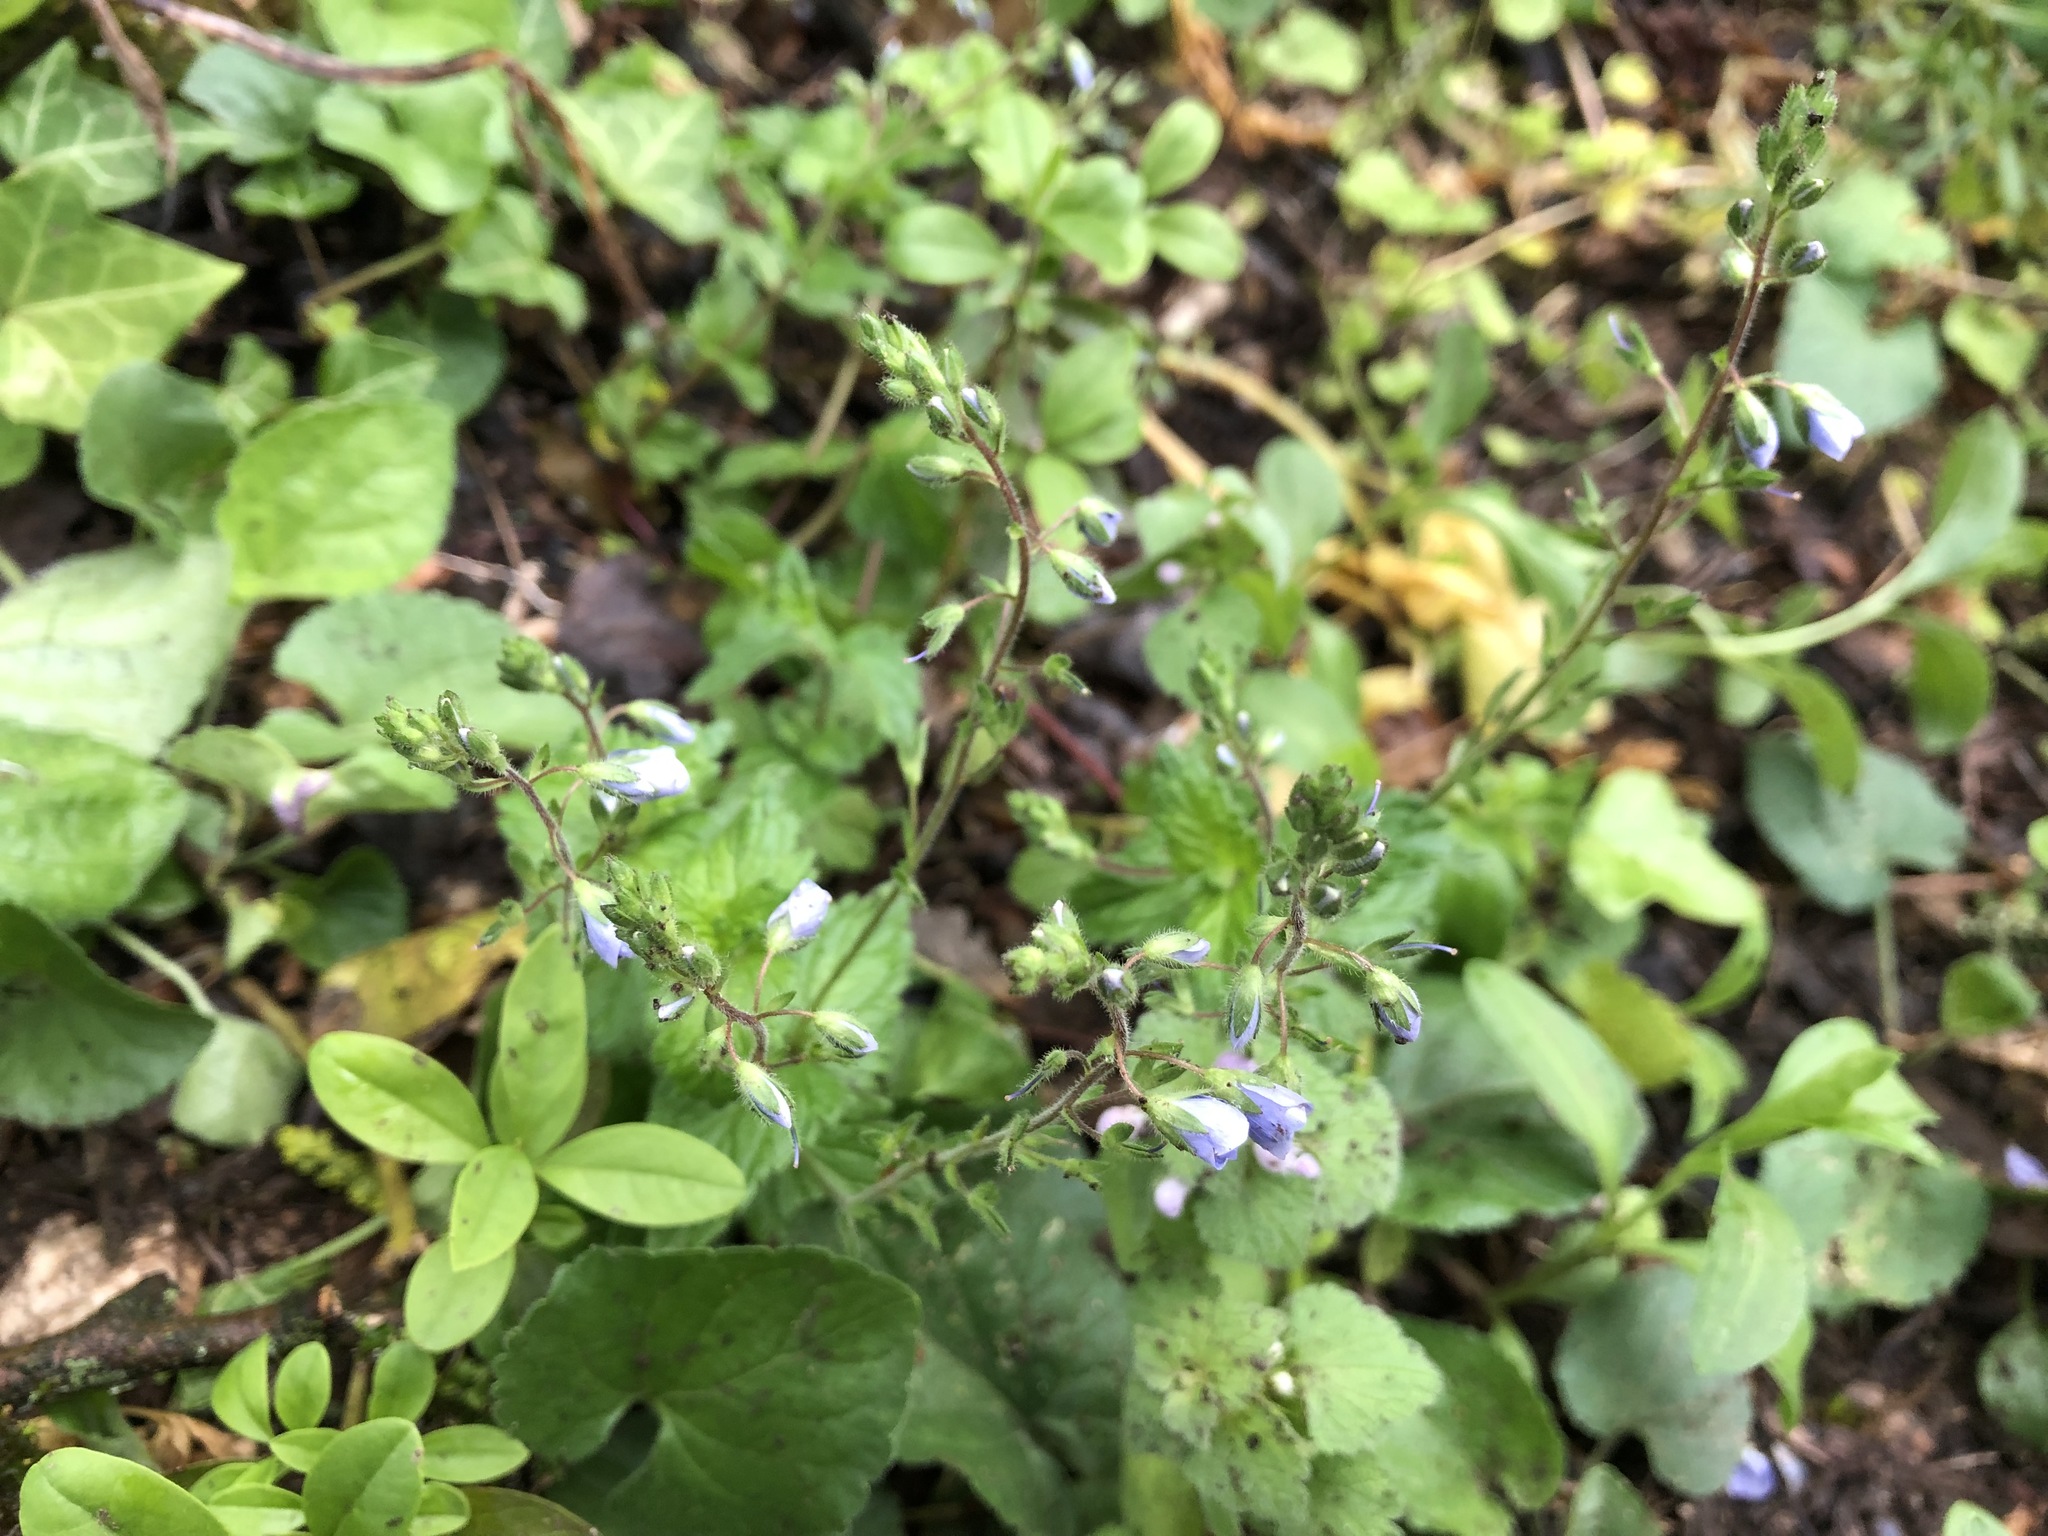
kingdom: Plantae
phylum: Tracheophyta
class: Magnoliopsida
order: Lamiales
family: Plantaginaceae
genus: Veronica
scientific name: Veronica chamaedrys
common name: Germander speedwell
